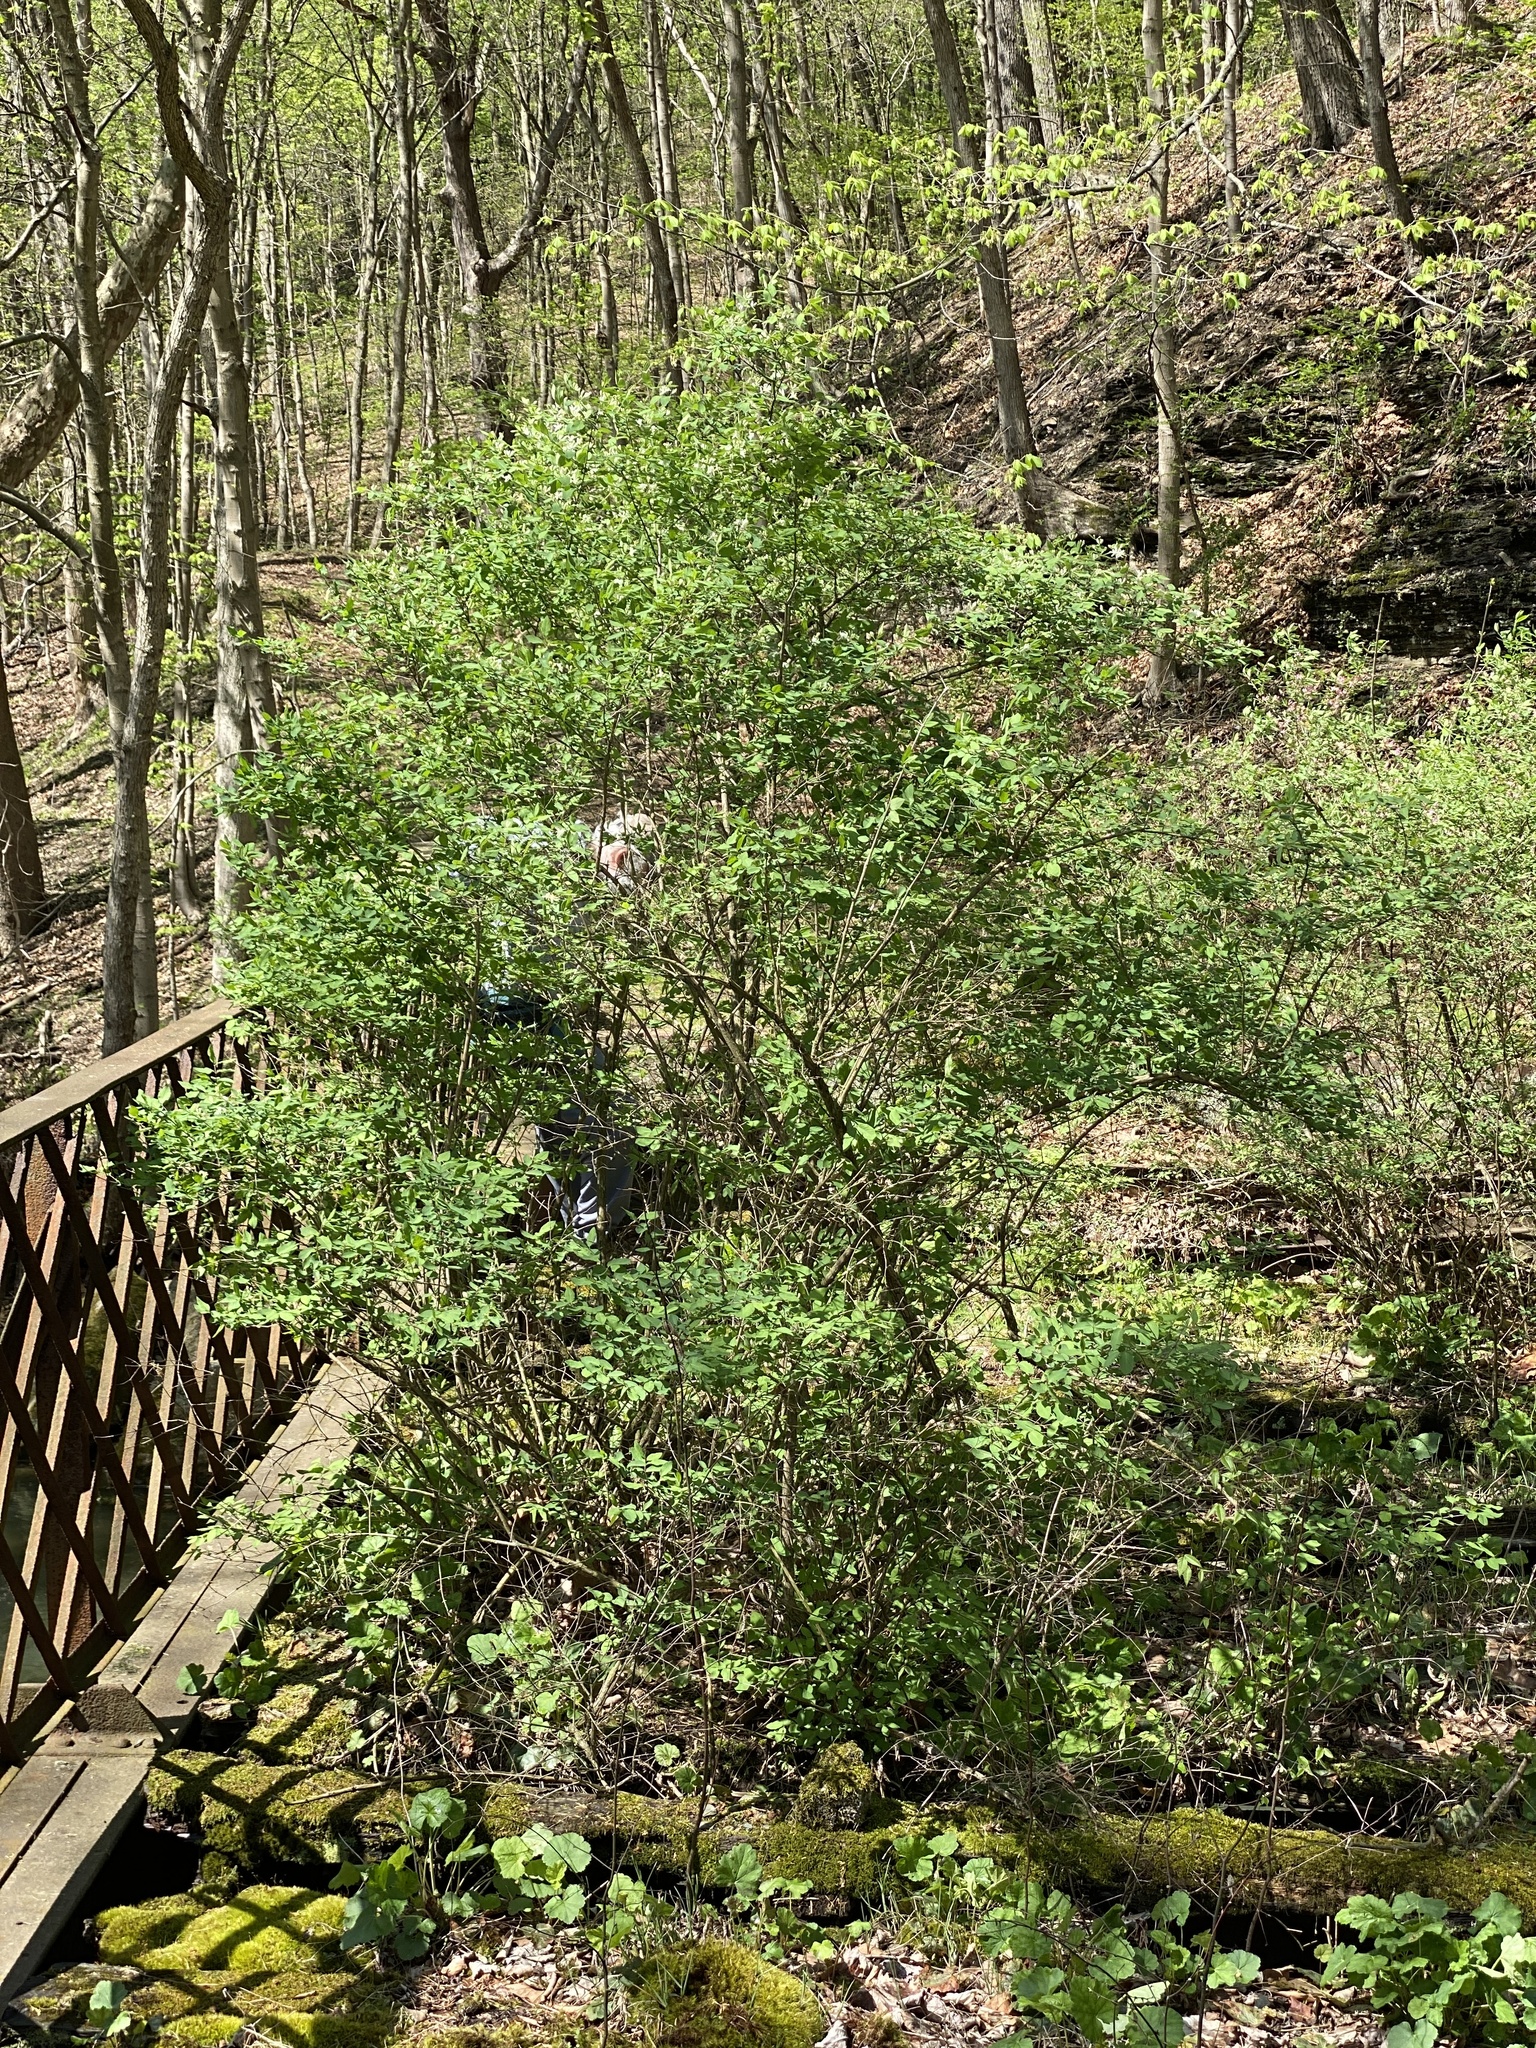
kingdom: Plantae
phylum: Tracheophyta
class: Magnoliopsida
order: Dipsacales
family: Caprifoliaceae
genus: Lonicera
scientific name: Lonicera morrowii
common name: Morrow's honeysuckle
